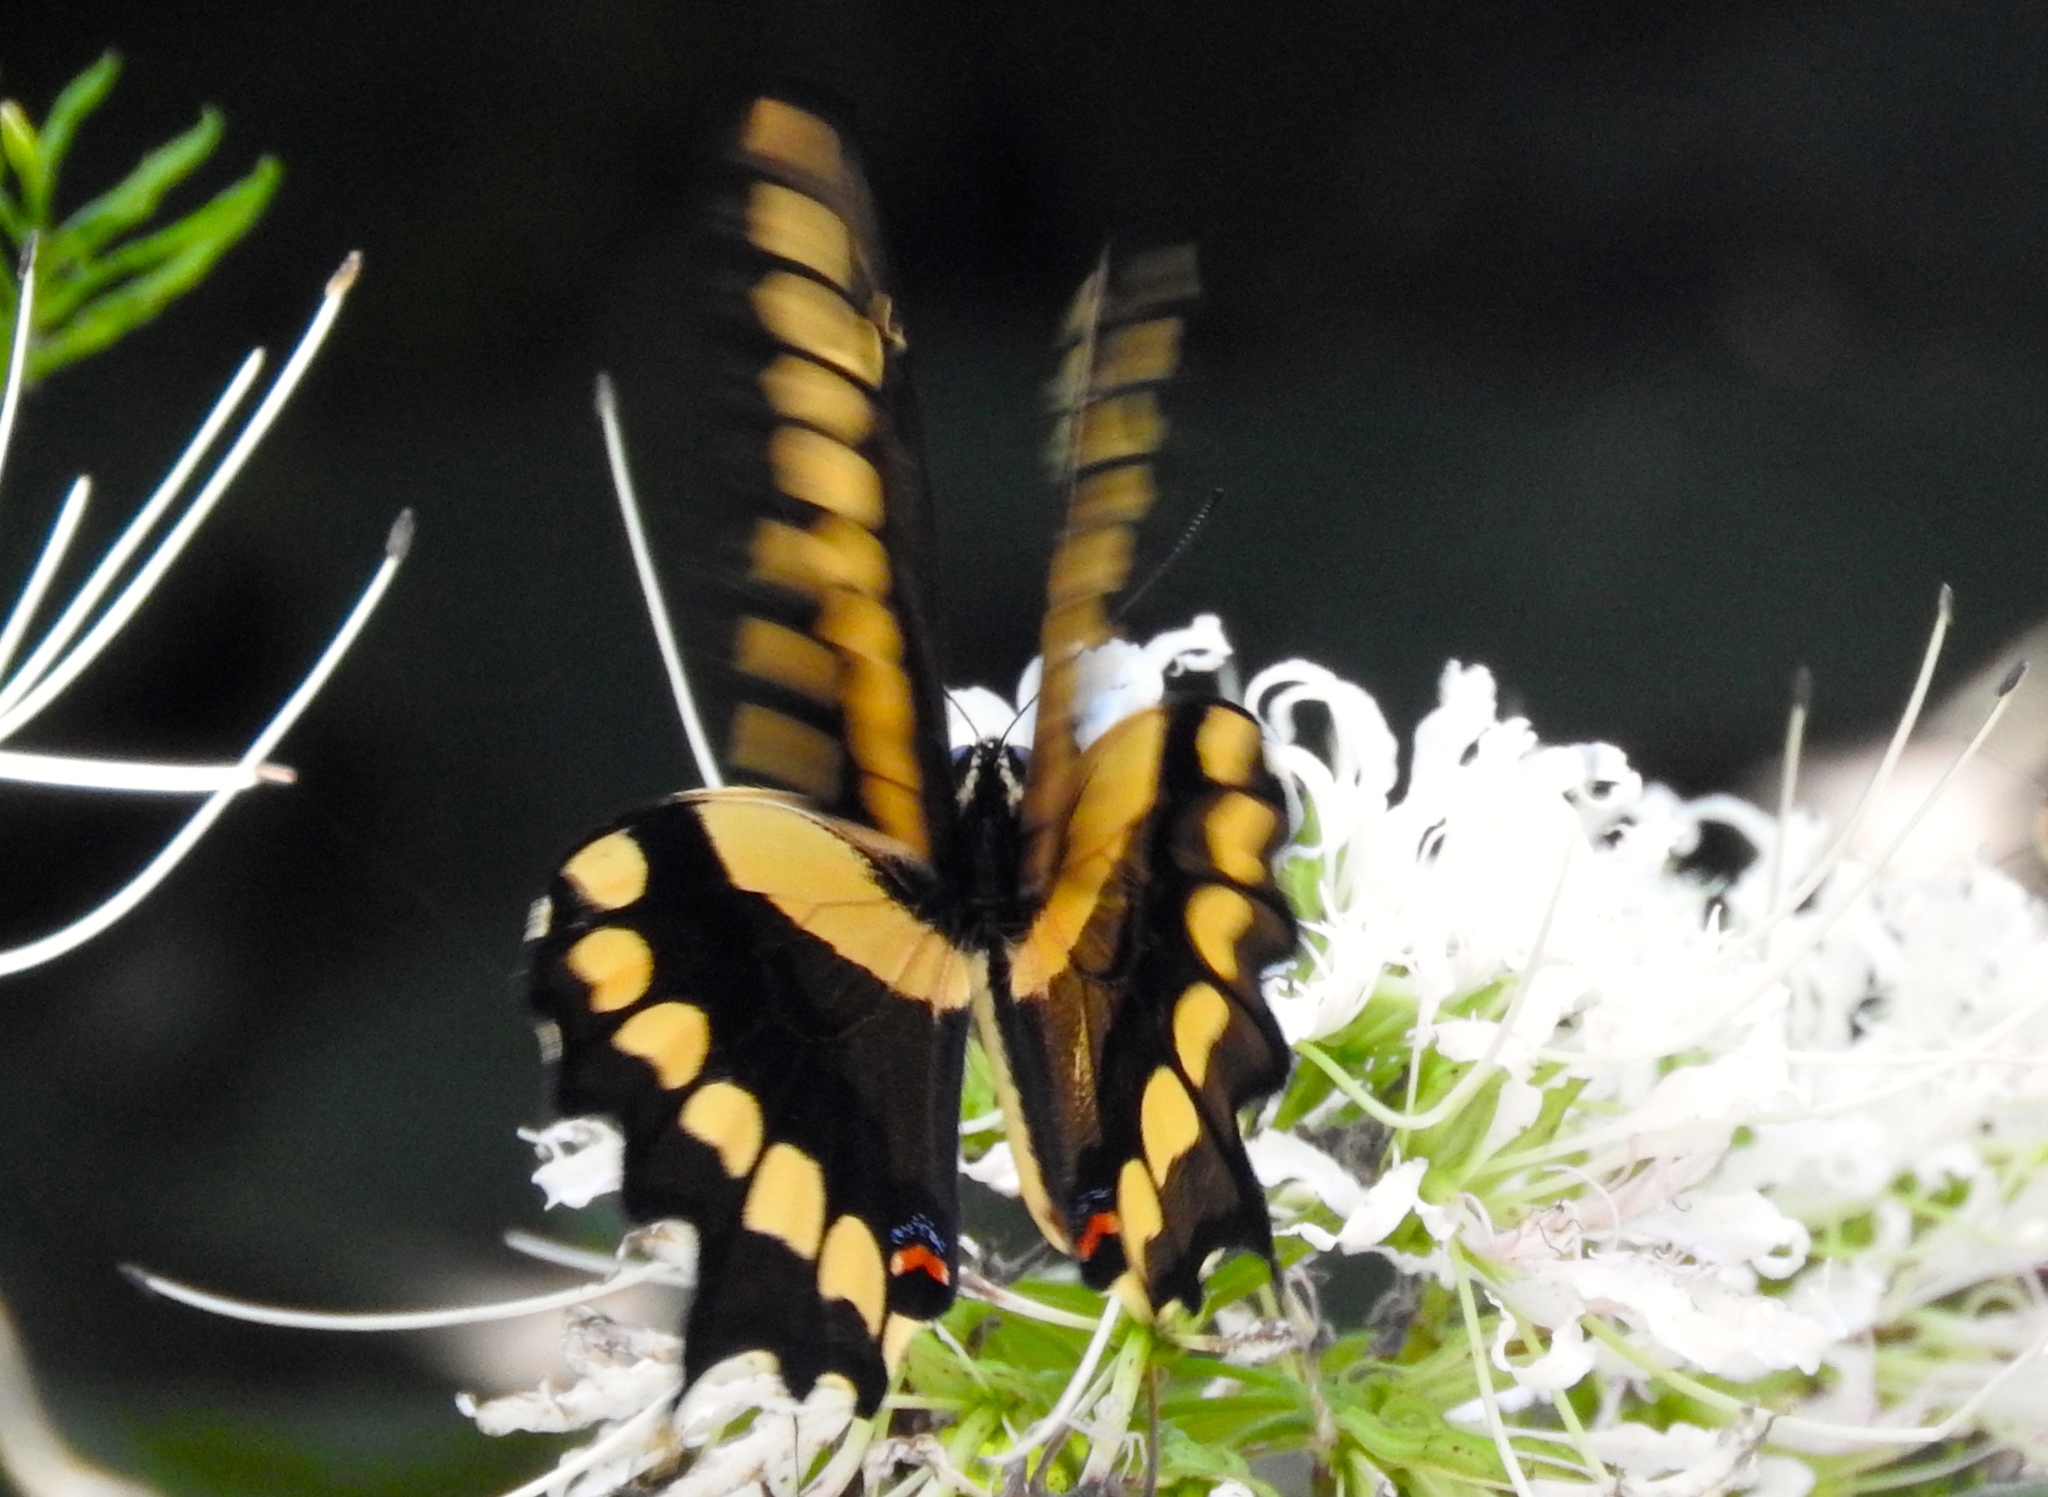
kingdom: Animalia
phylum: Arthropoda
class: Insecta
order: Lepidoptera
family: Papilionidae
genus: Papilio
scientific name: Papilio rumiko
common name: Western giant swallowtail
